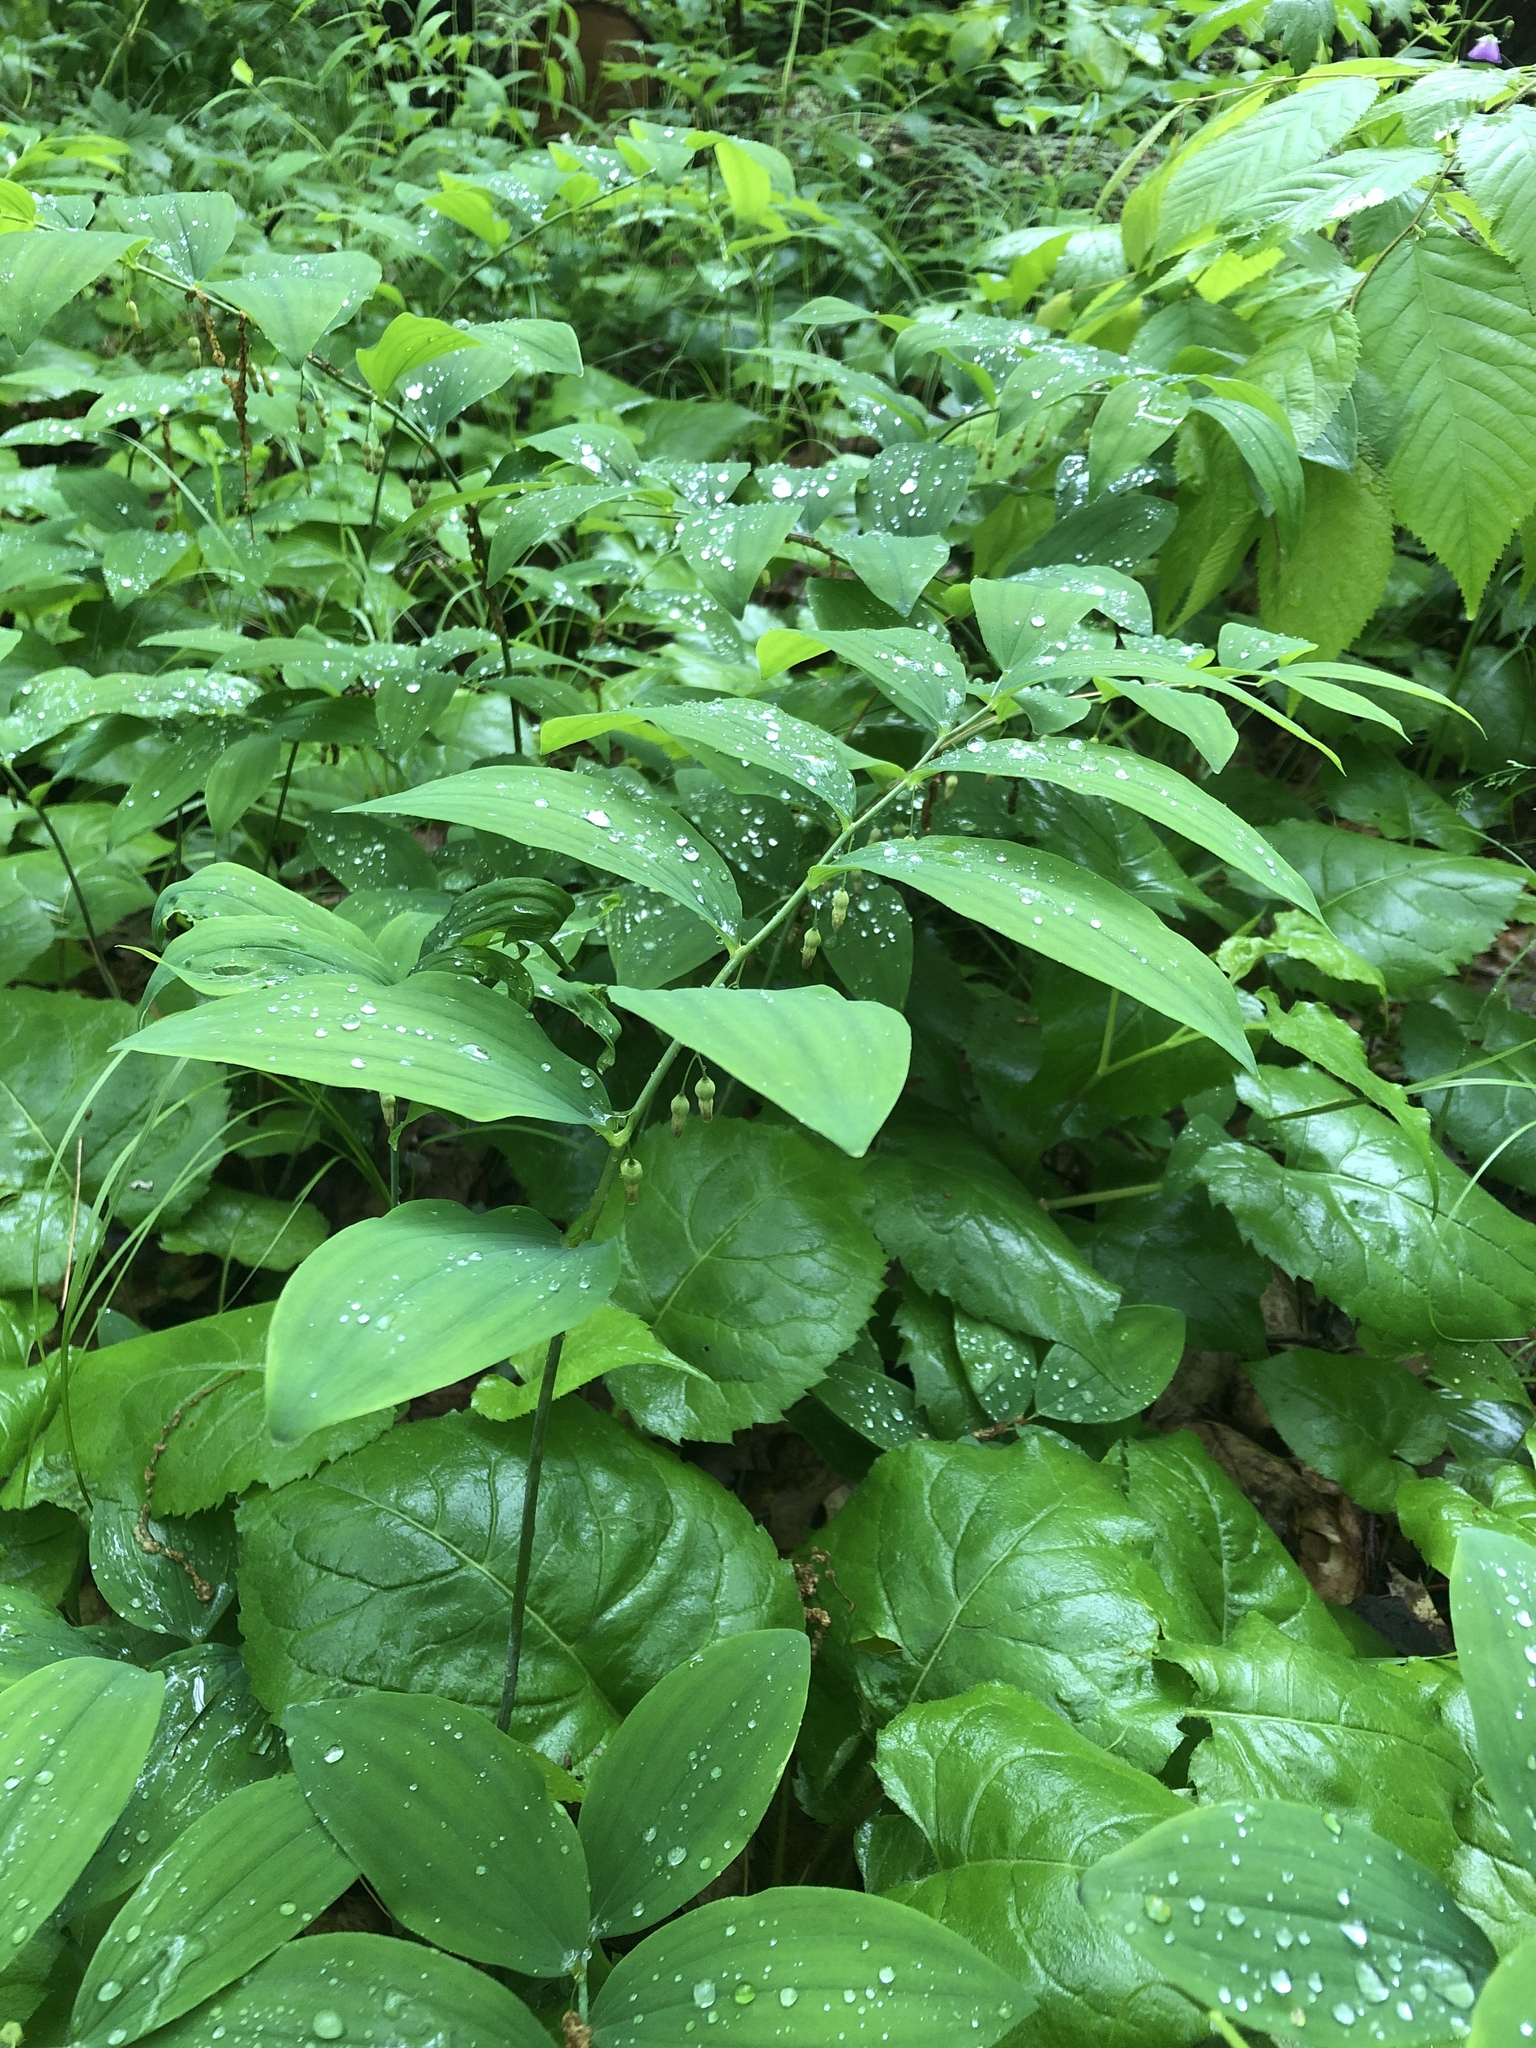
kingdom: Plantae
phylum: Tracheophyta
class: Liliopsida
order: Asparagales
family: Asparagaceae
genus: Polygonatum
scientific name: Polygonatum pubescens
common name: Downy solomon's seal
